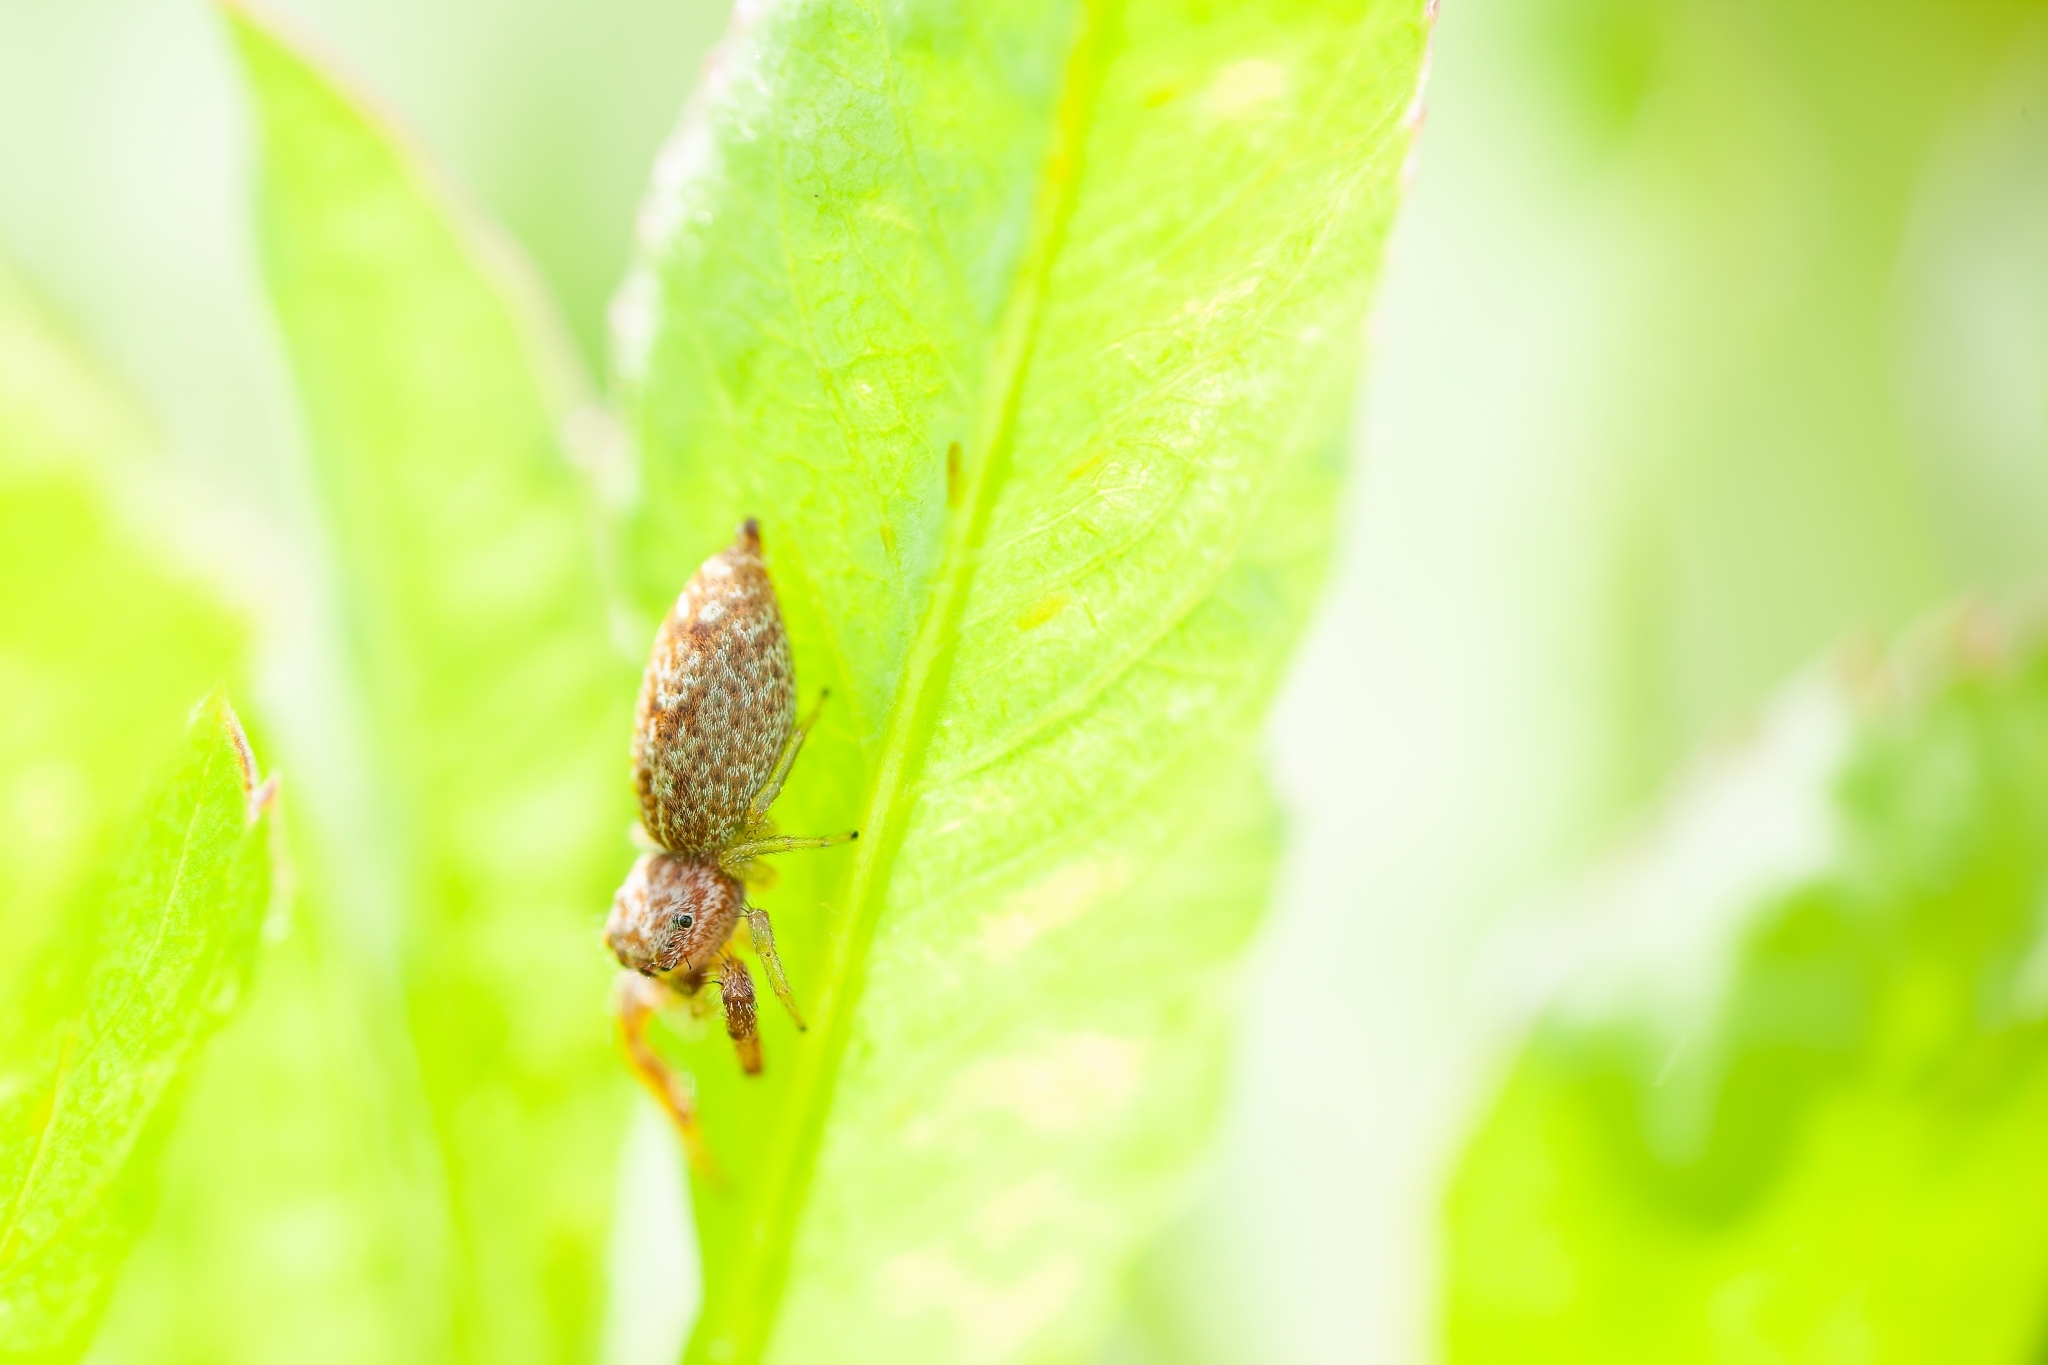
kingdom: Animalia
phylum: Arthropoda
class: Arachnida
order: Araneae
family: Salticidae
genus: Hentzia
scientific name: Hentzia chekika
